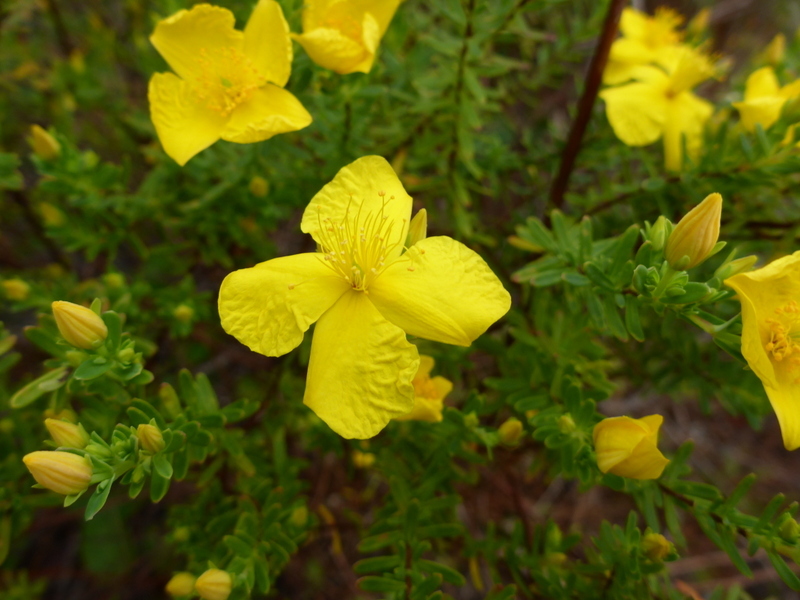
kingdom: Plantae
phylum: Tracheophyta
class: Magnoliopsida
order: Malpighiales
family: Hypericaceae
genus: Hypericum
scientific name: Hypericum microsepalum
